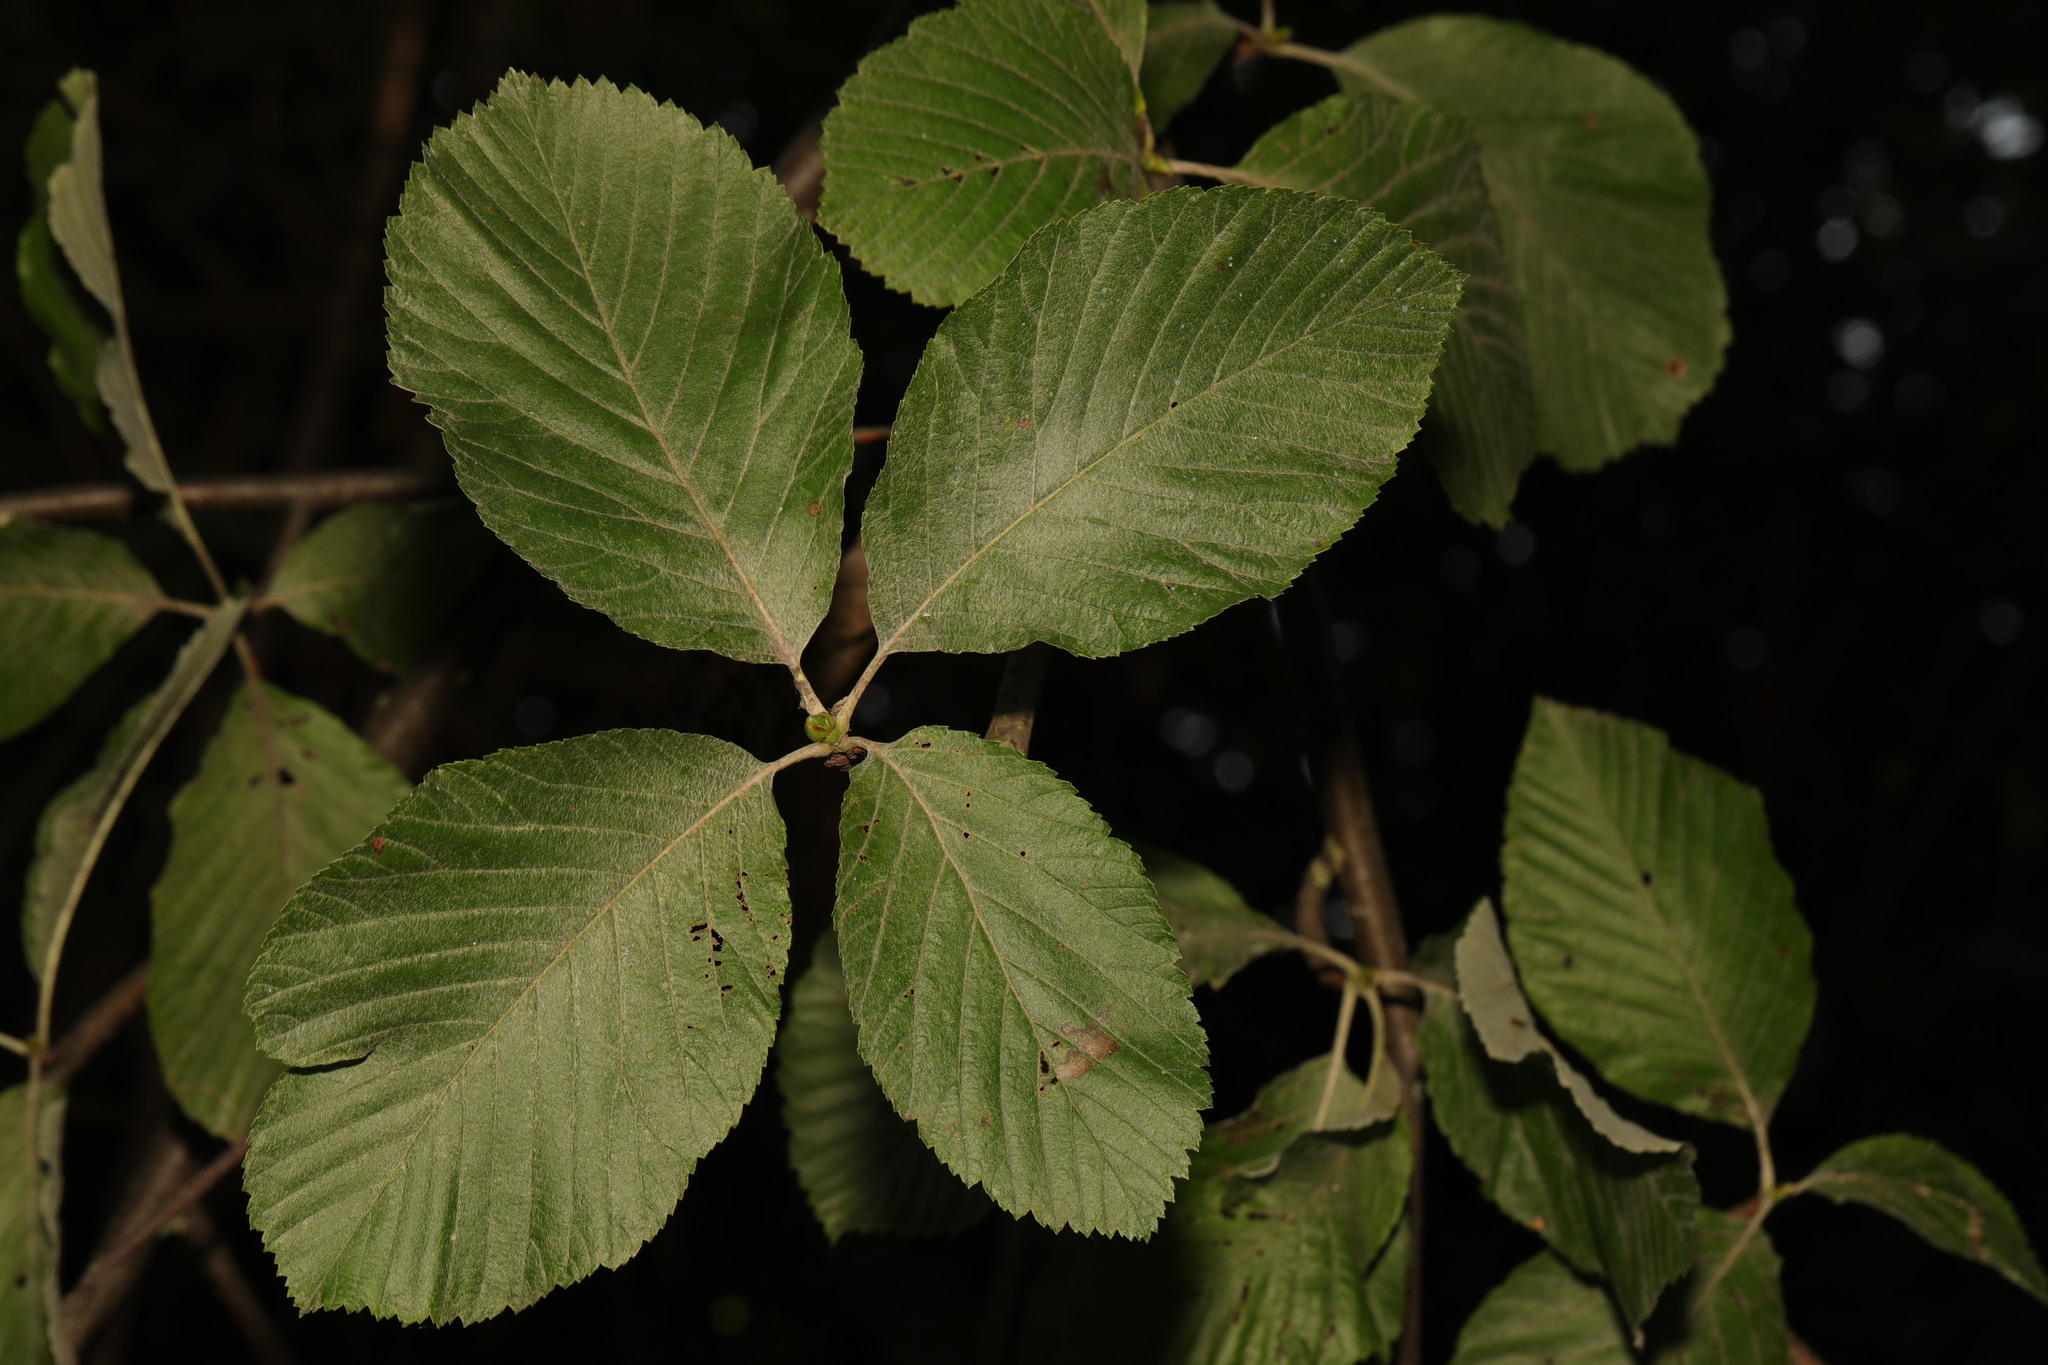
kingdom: Plantae
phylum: Tracheophyta
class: Magnoliopsida
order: Rosales
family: Rosaceae
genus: Aria
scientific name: Aria edulis
